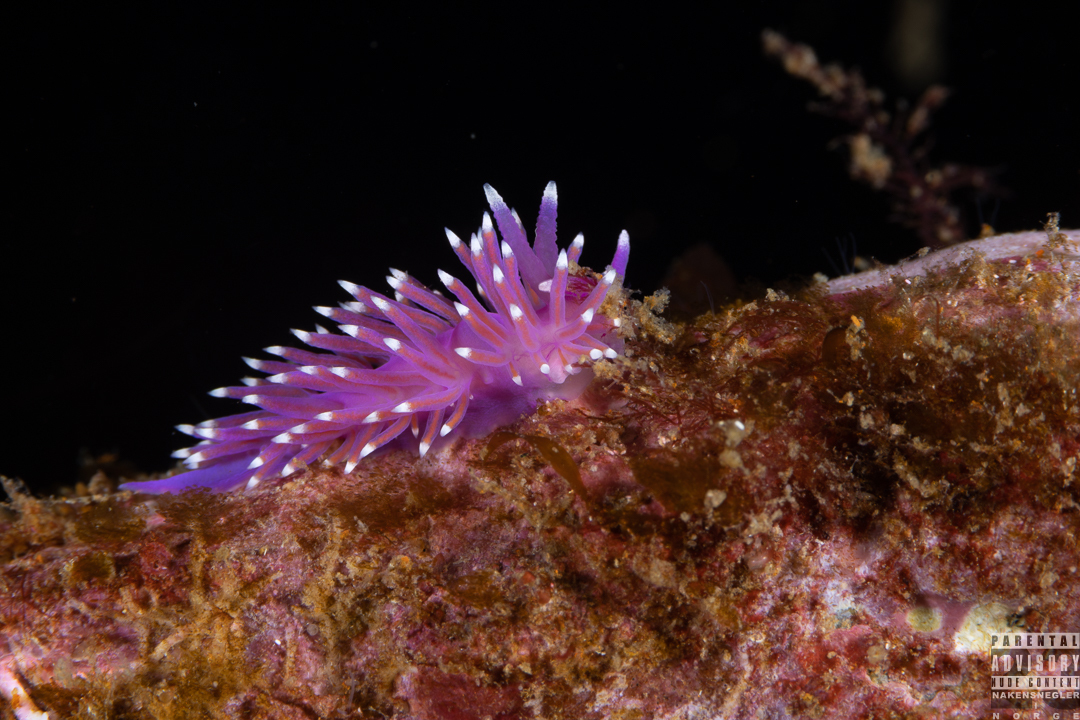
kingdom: Animalia
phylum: Mollusca
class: Gastropoda
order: Nudibranchia
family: Flabellinidae
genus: Edmundsella
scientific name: Edmundsella pedata
